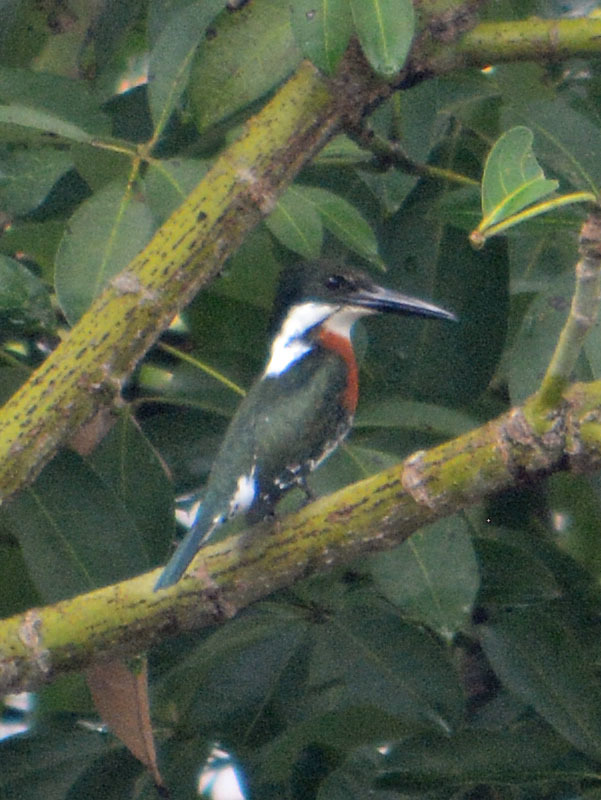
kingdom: Animalia
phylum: Chordata
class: Aves
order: Coraciiformes
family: Alcedinidae
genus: Chloroceryle
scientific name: Chloroceryle amazona
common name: Amazon kingfisher
